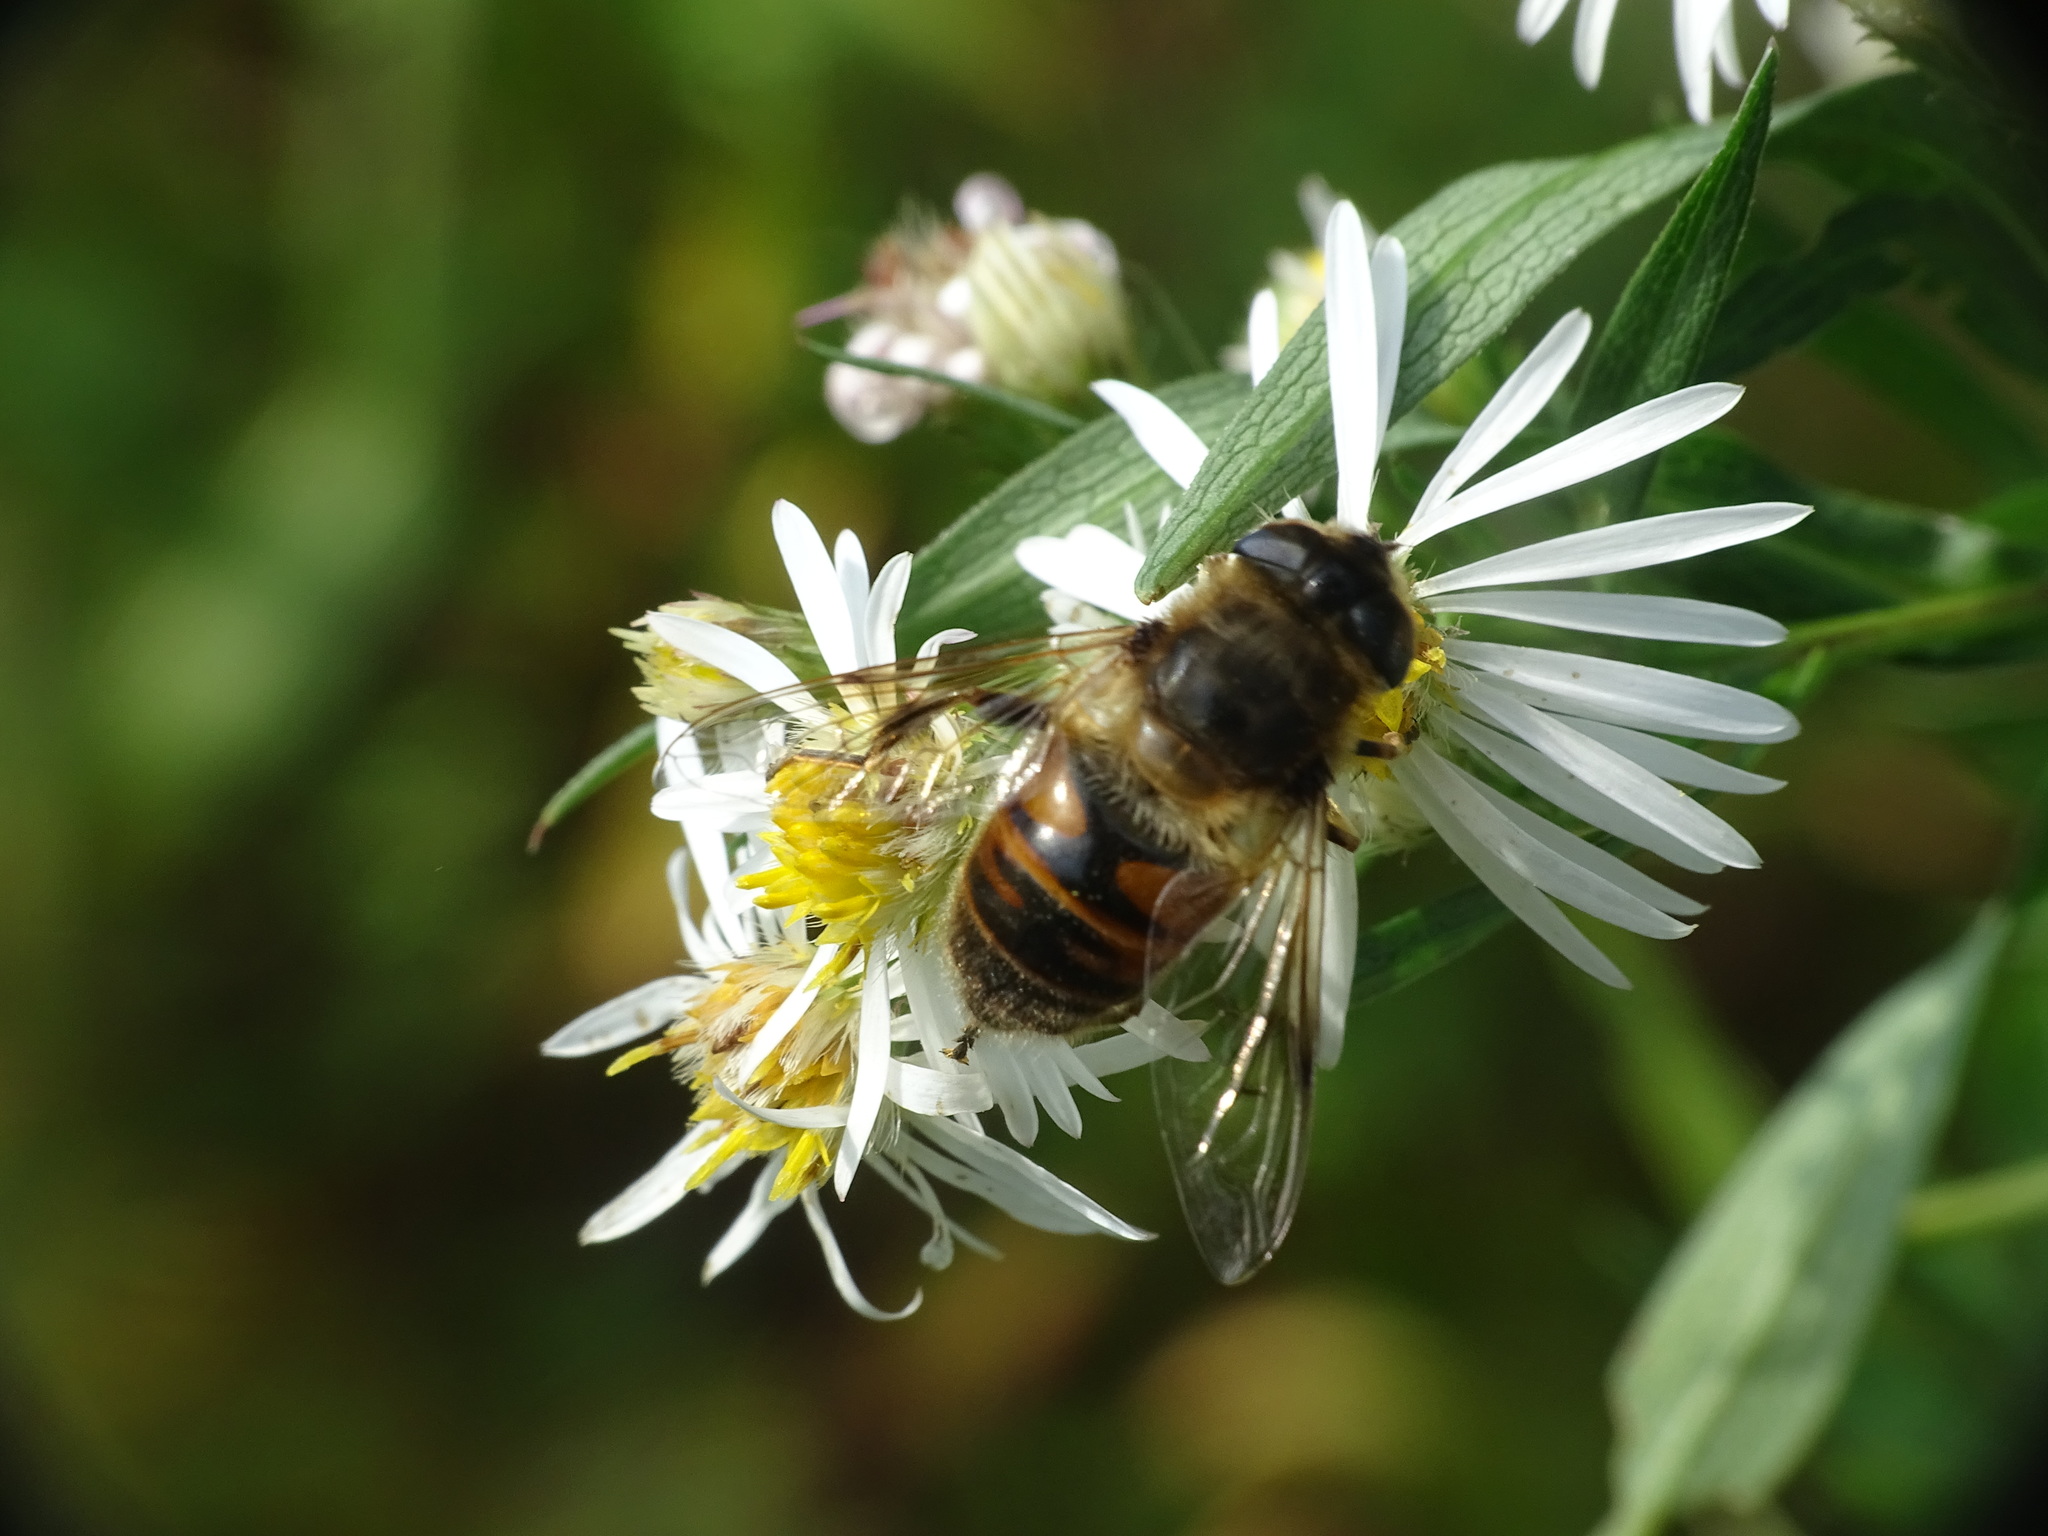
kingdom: Animalia
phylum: Arthropoda
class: Insecta
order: Diptera
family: Syrphidae
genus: Eristalis
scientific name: Eristalis tenax
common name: Drone fly
